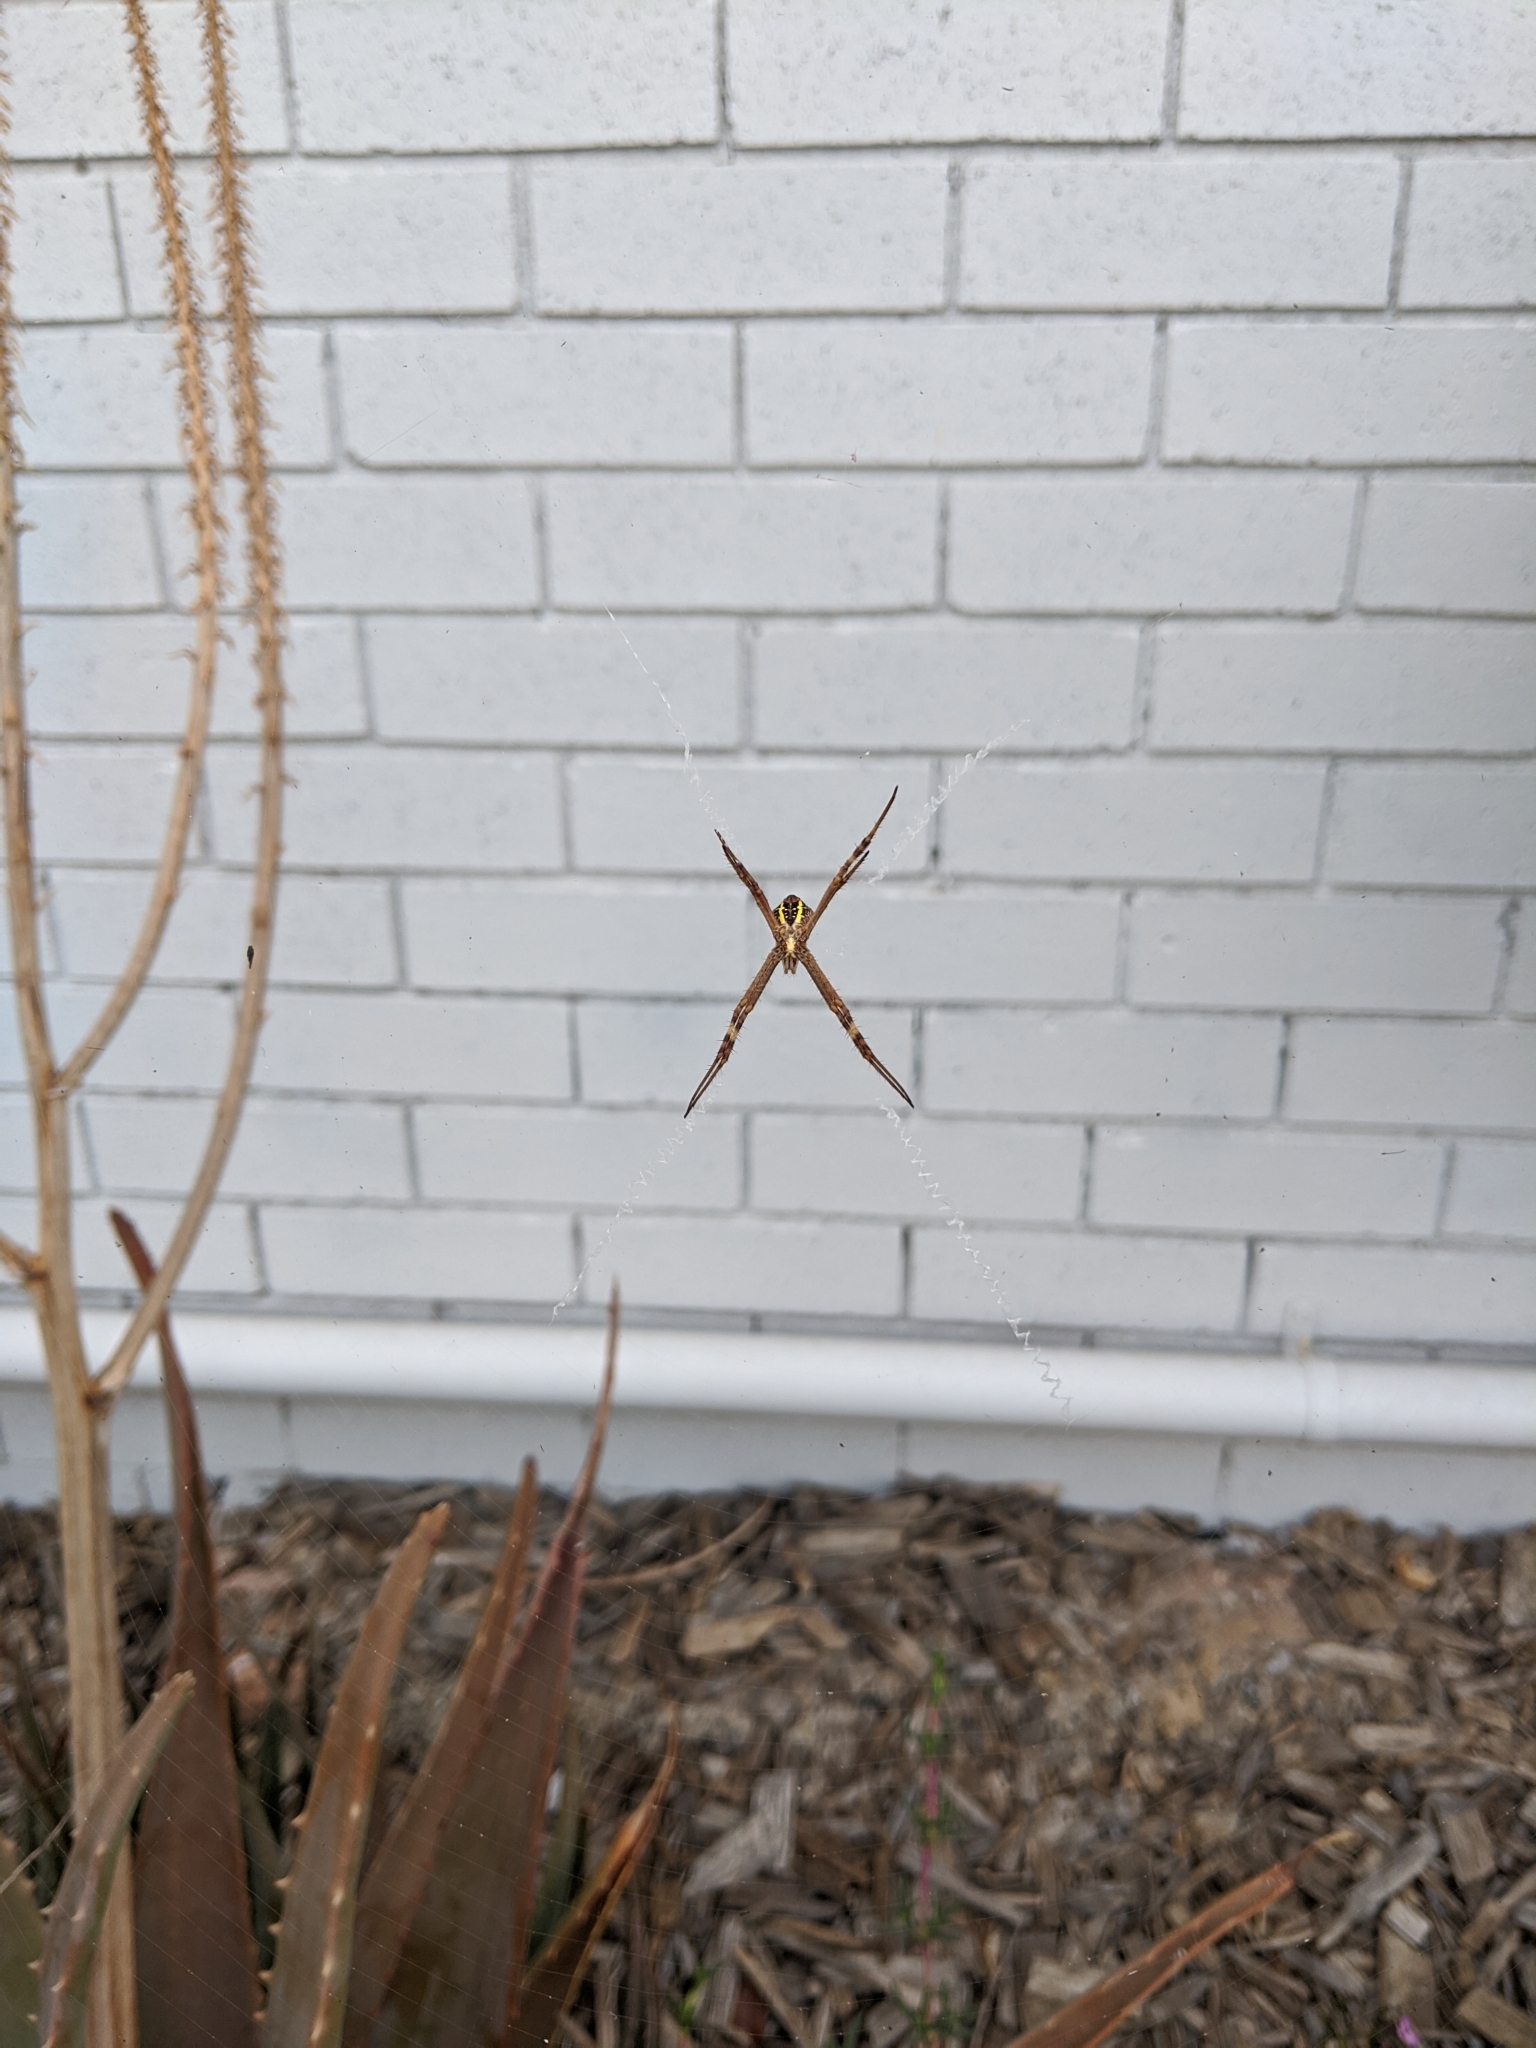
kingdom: Animalia
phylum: Arthropoda
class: Arachnida
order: Araneae
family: Araneidae
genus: Argiope
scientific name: Argiope keyserlingi
